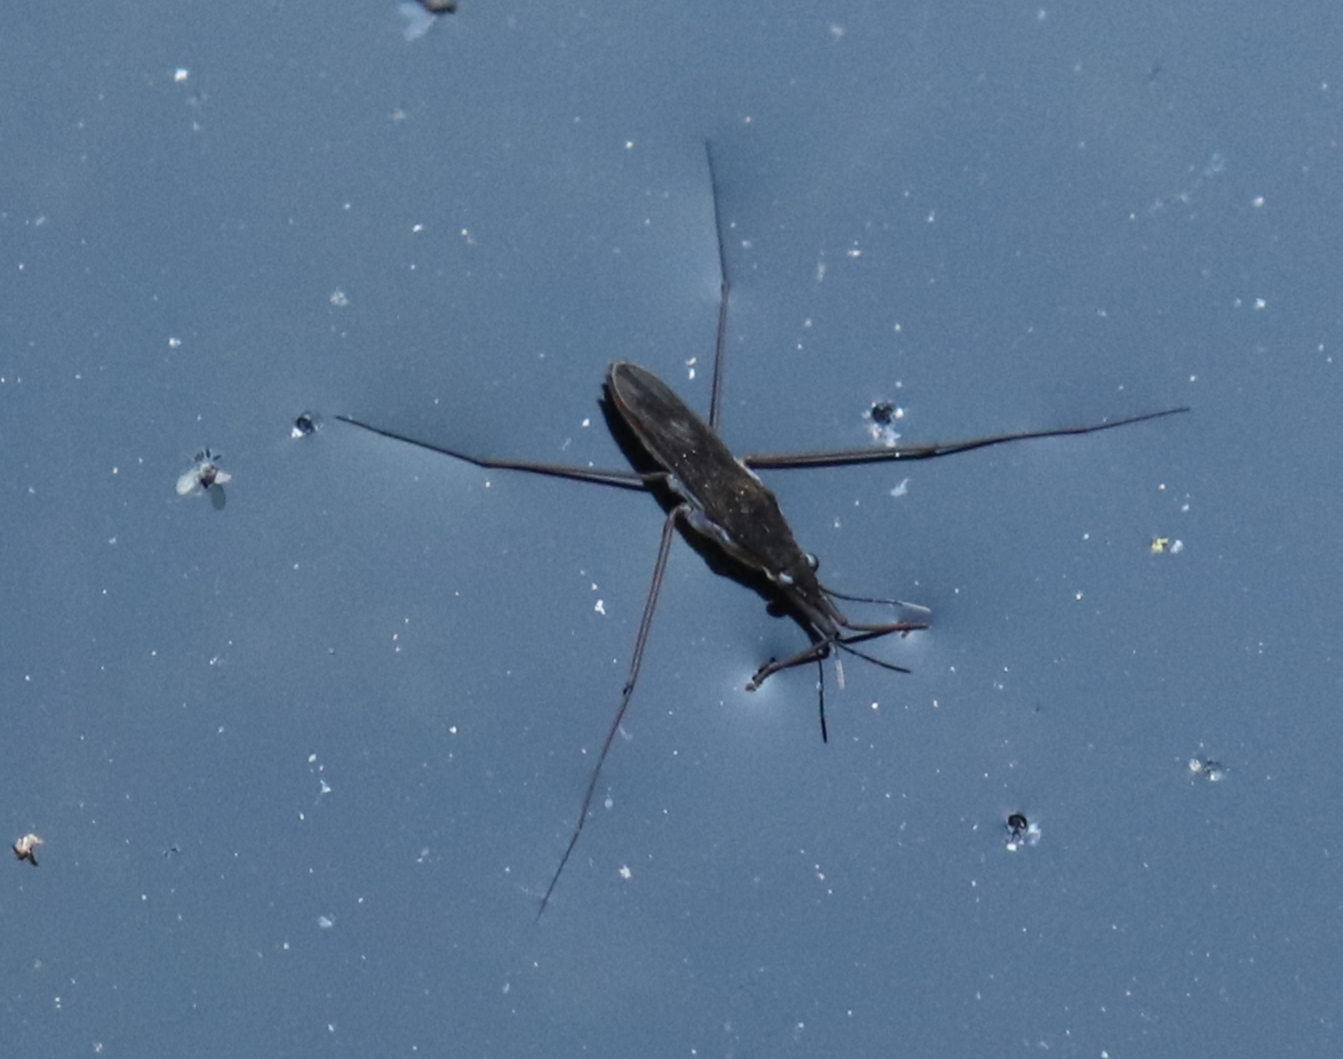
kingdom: Animalia
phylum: Arthropoda
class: Insecta
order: Hemiptera
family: Gerridae
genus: Gerris
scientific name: Gerris
